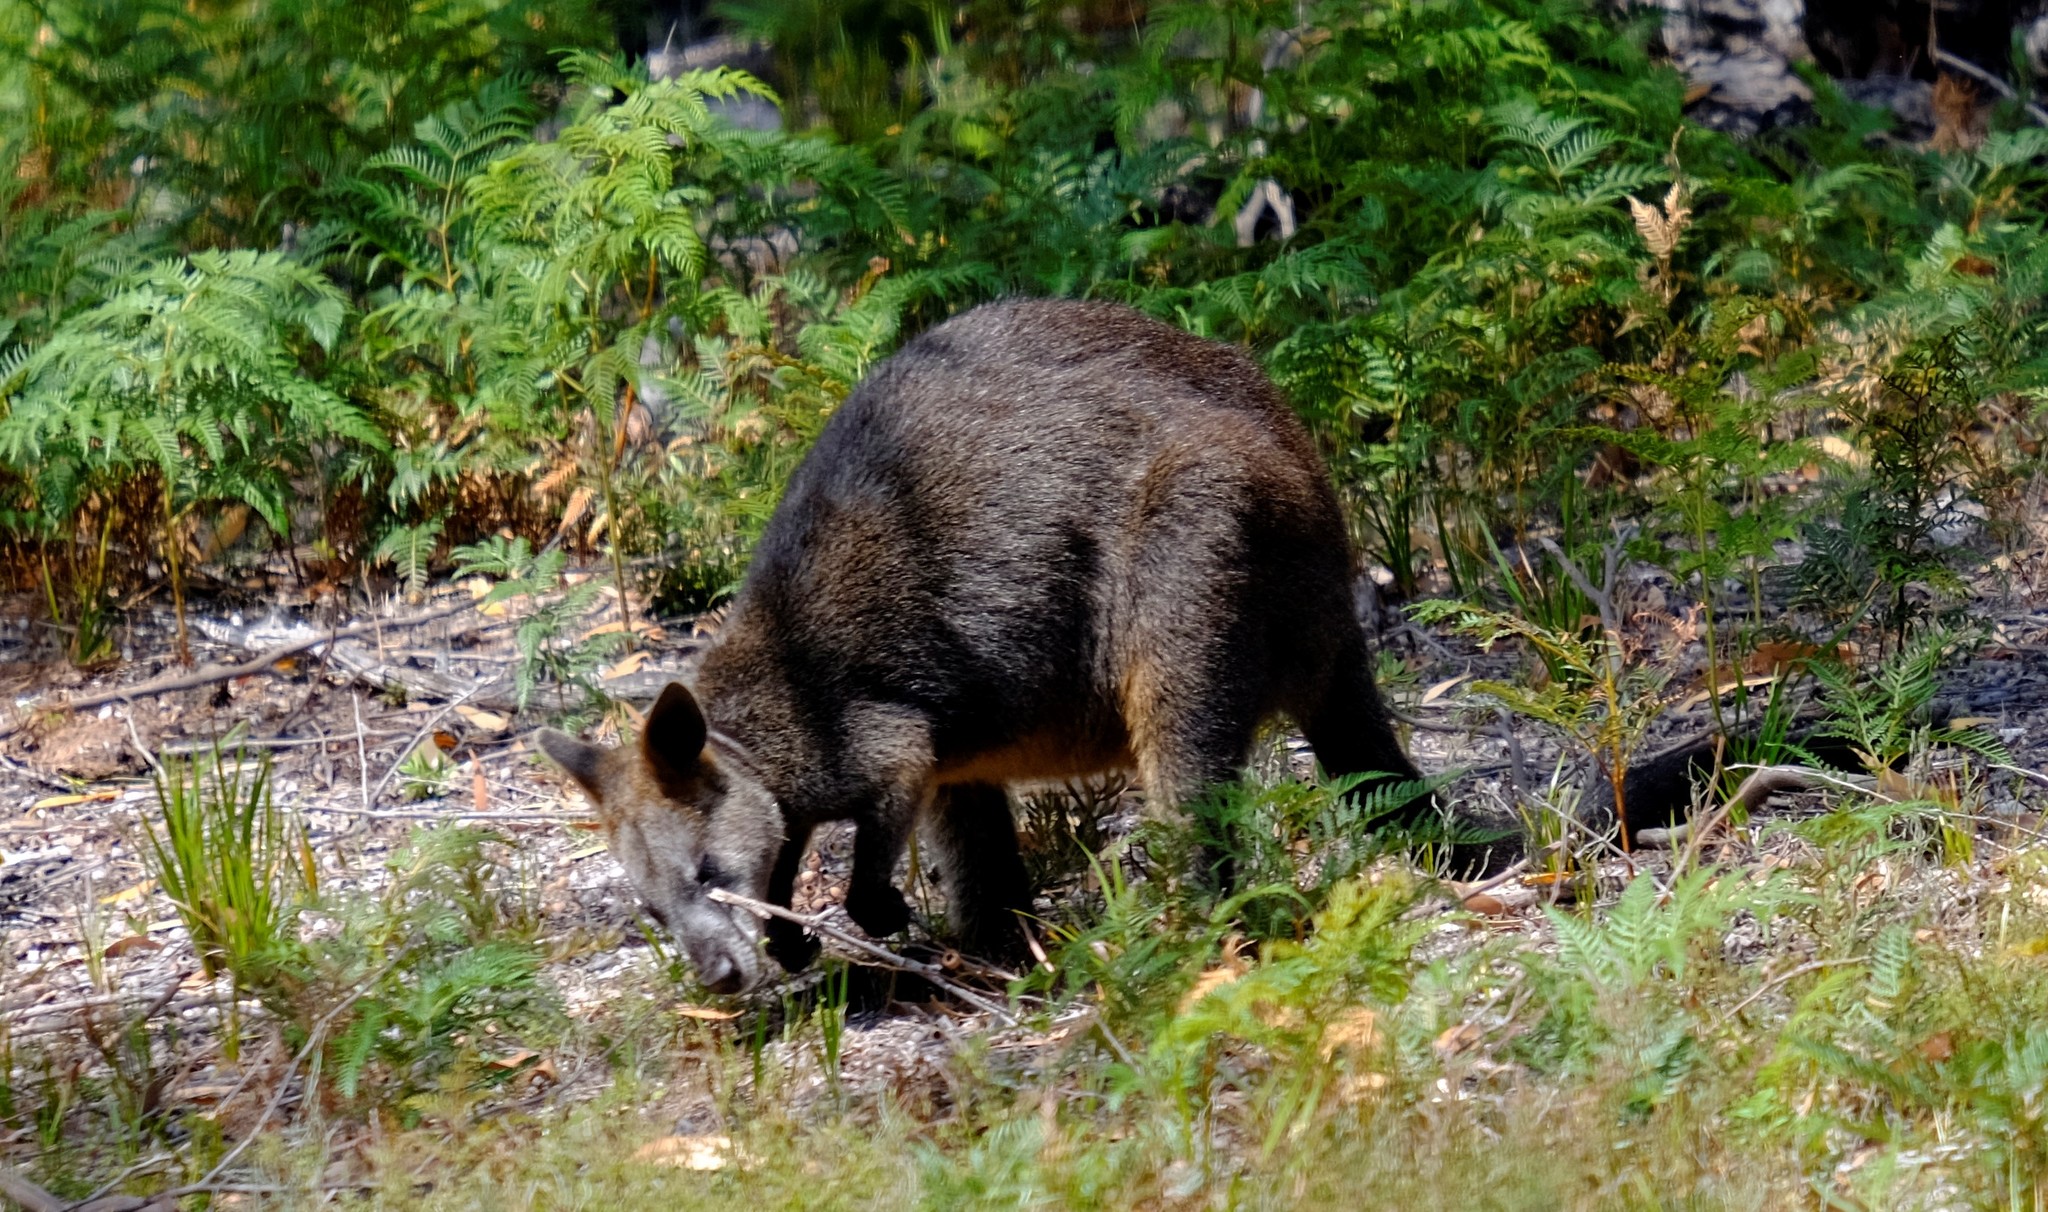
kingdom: Animalia
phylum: Chordata
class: Mammalia
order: Diprotodontia
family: Macropodidae
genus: Wallabia
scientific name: Wallabia bicolor
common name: Swamp wallaby
